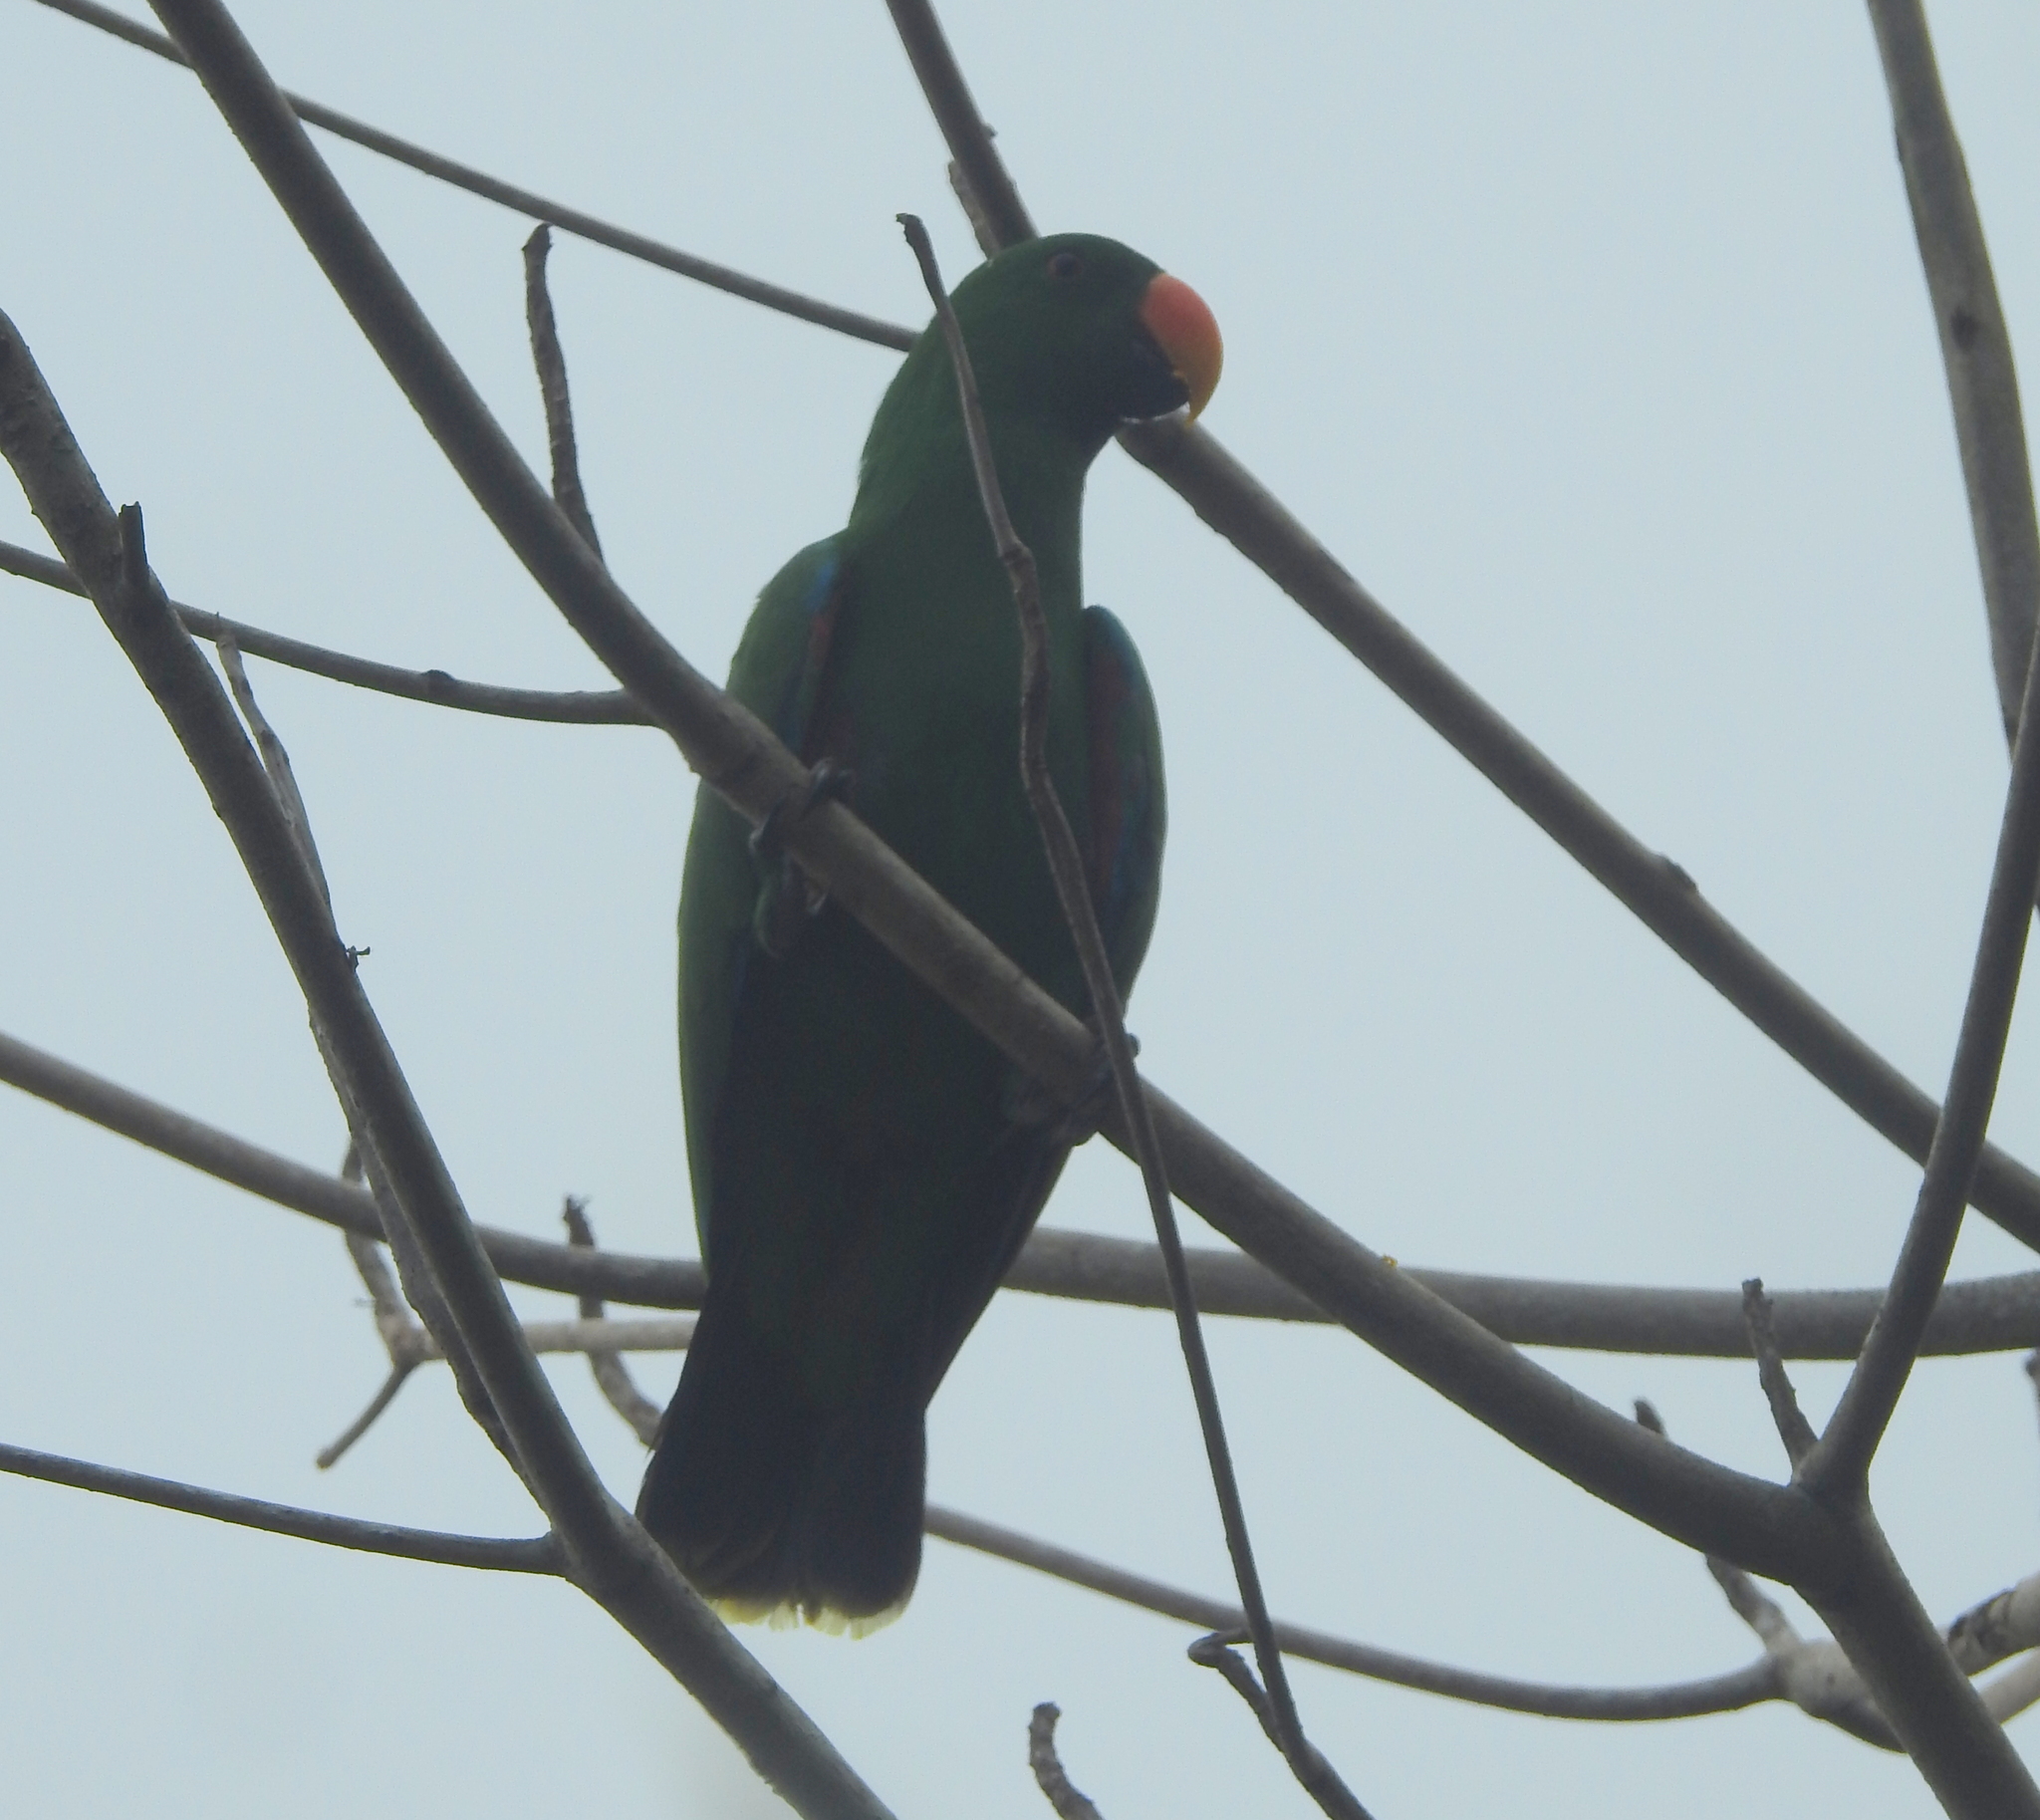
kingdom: Animalia
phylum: Chordata
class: Aves
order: Psittaciformes
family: Psittacidae
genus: Eclectus
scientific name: Eclectus roratus
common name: Eclectus parrot
